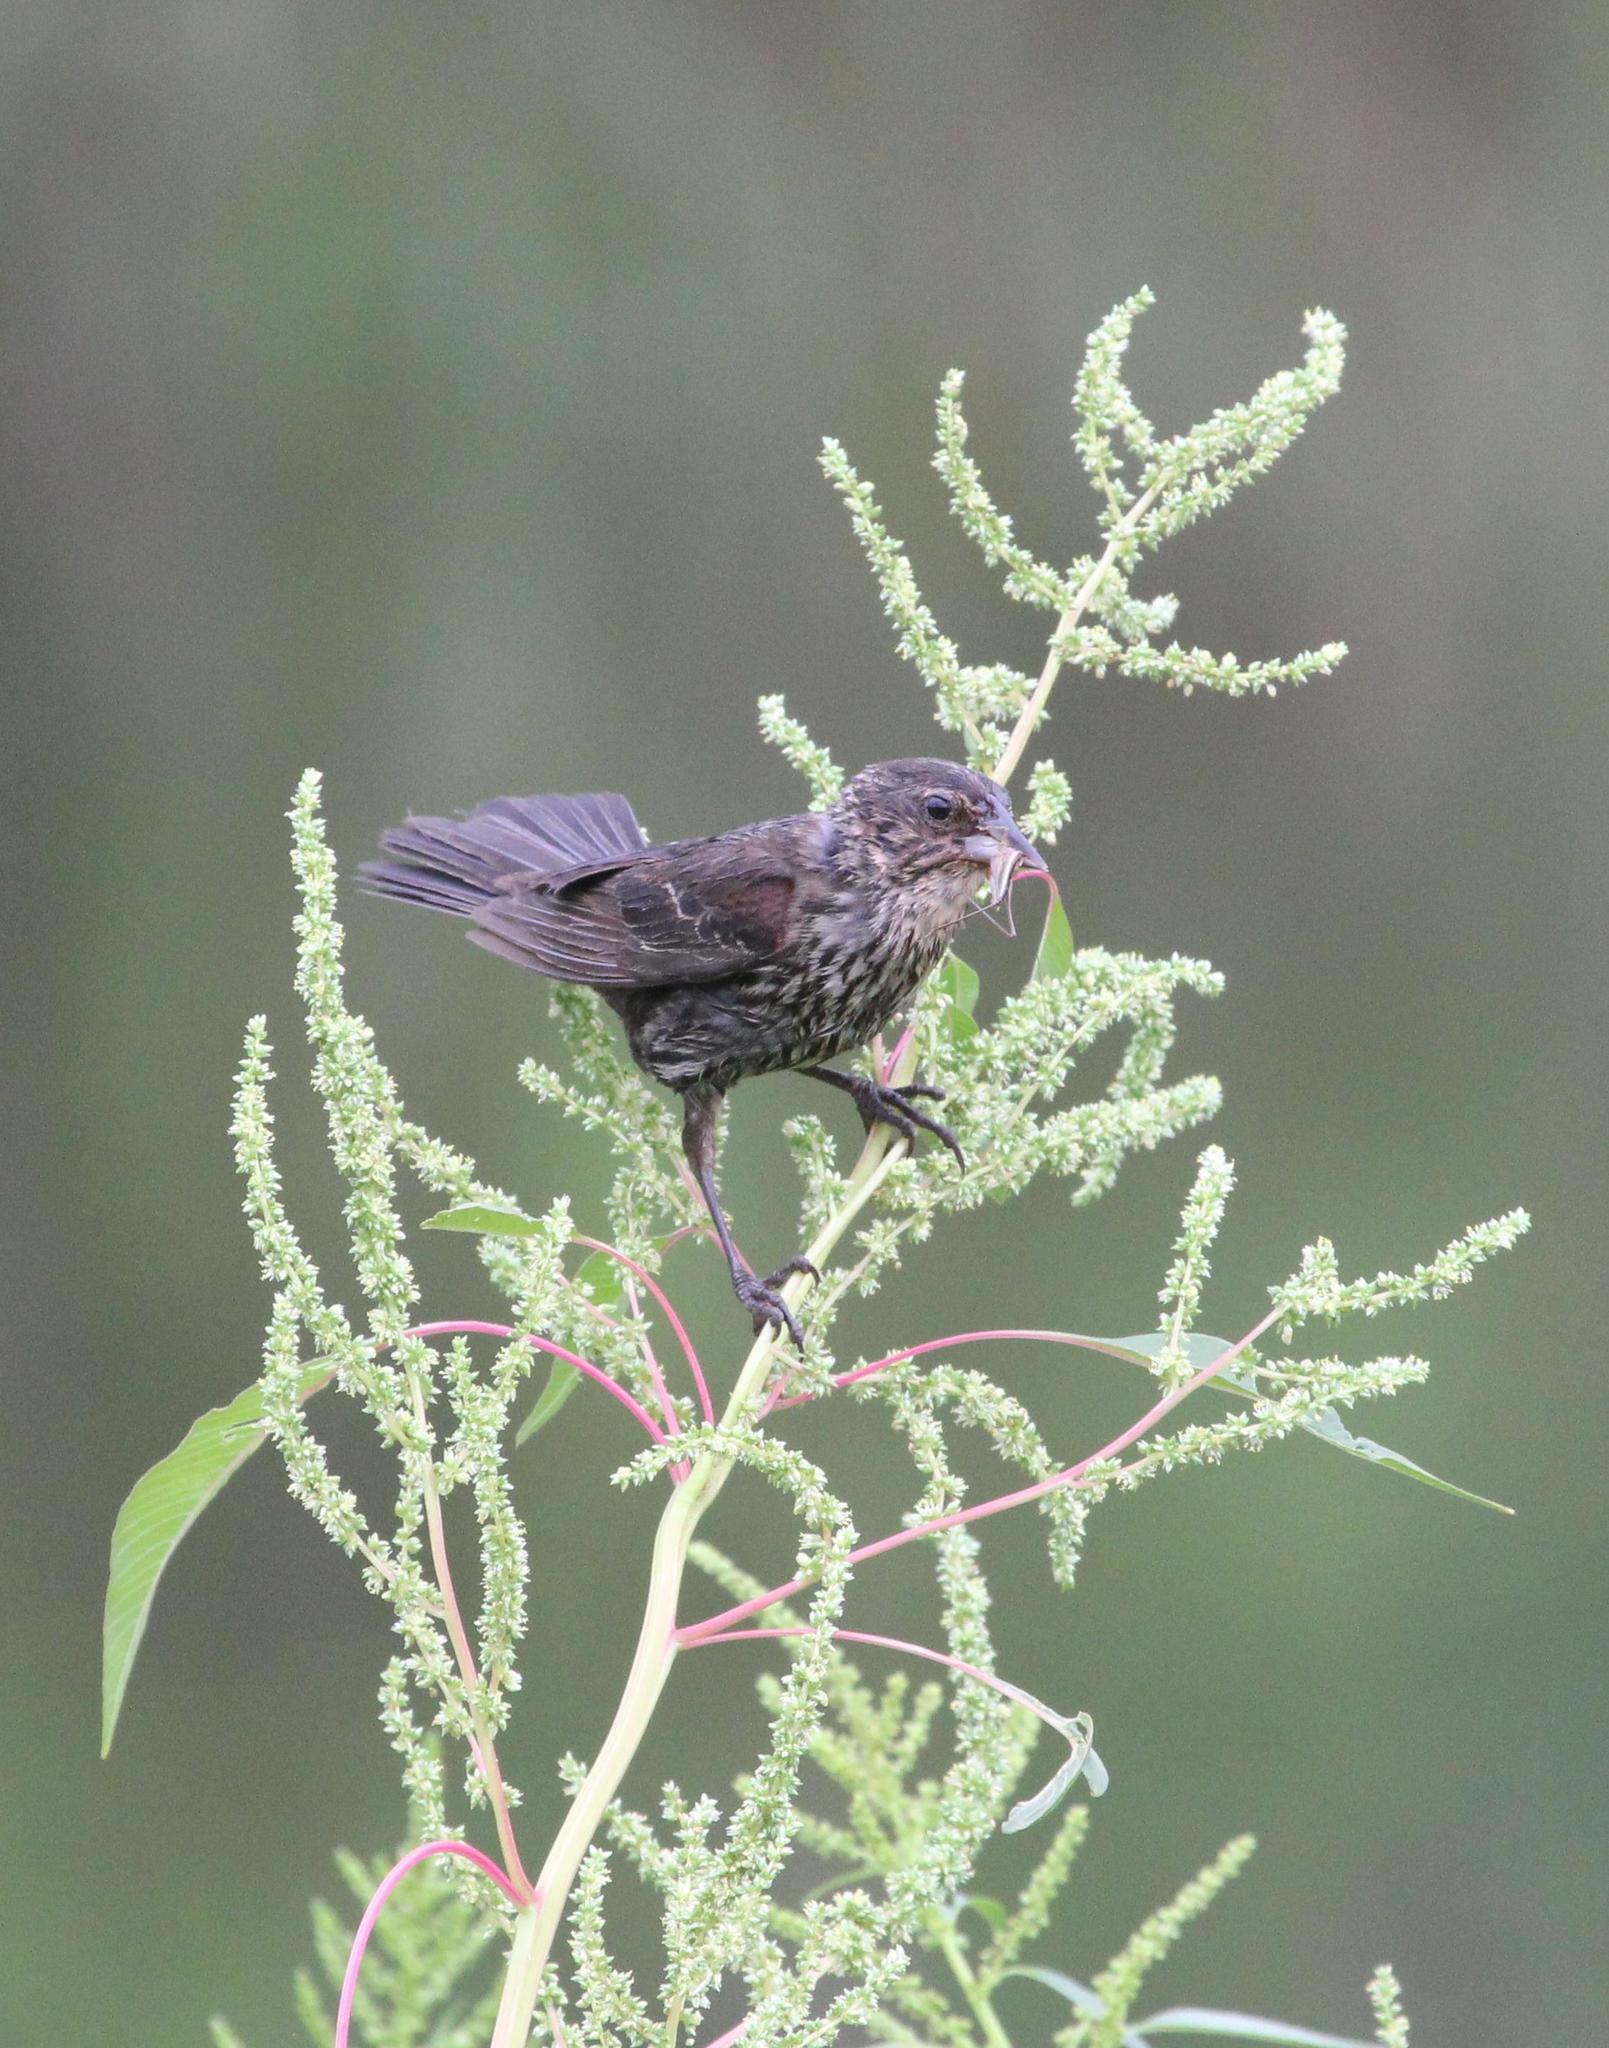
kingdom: Animalia
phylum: Chordata
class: Aves
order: Passeriformes
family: Icteridae
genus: Agelaius
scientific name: Agelaius phoeniceus
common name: Red-winged blackbird
